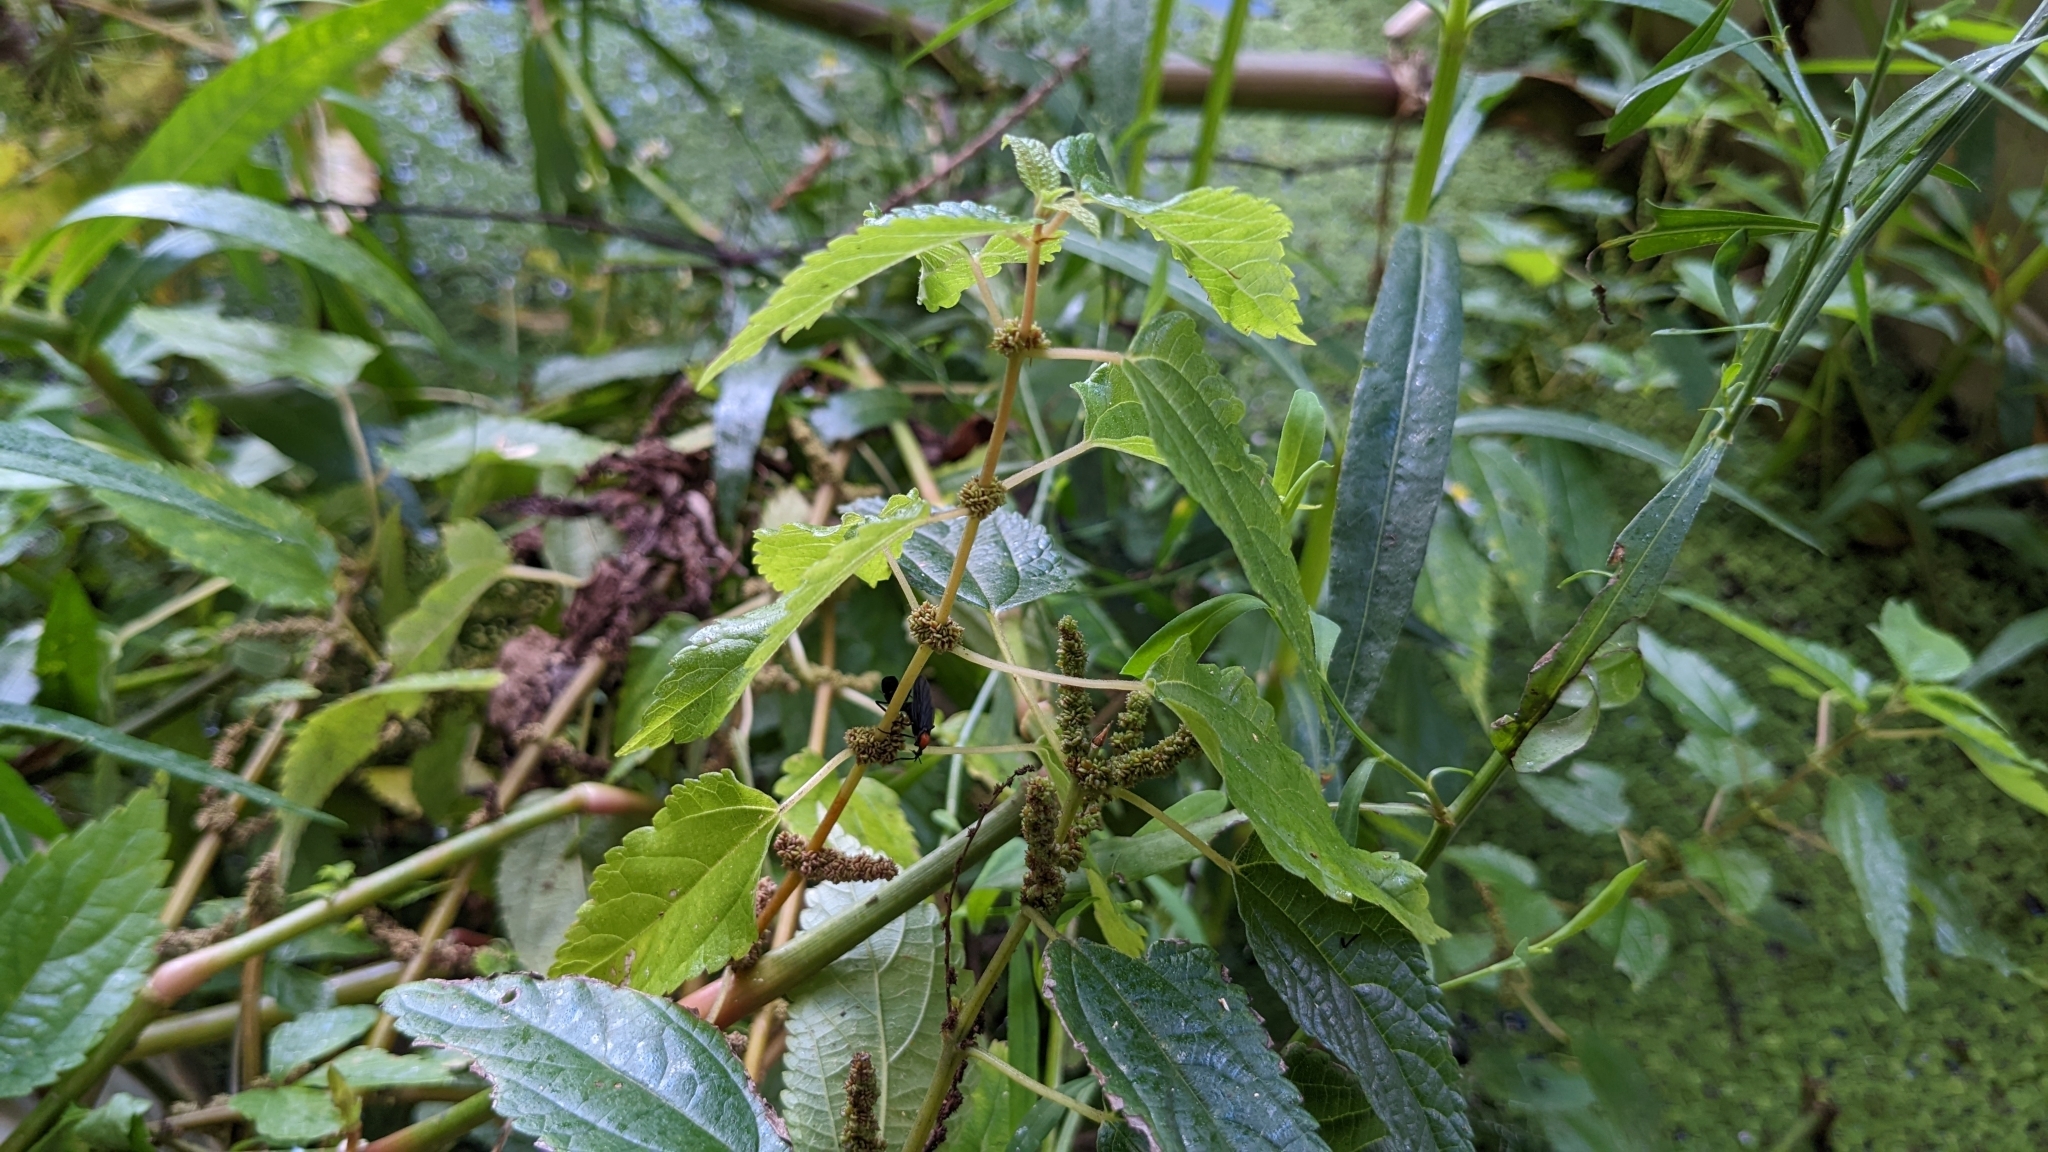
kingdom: Plantae
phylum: Tracheophyta
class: Magnoliopsida
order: Rosales
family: Urticaceae
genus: Boehmeria
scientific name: Boehmeria cylindrica
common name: Bog-hemp
